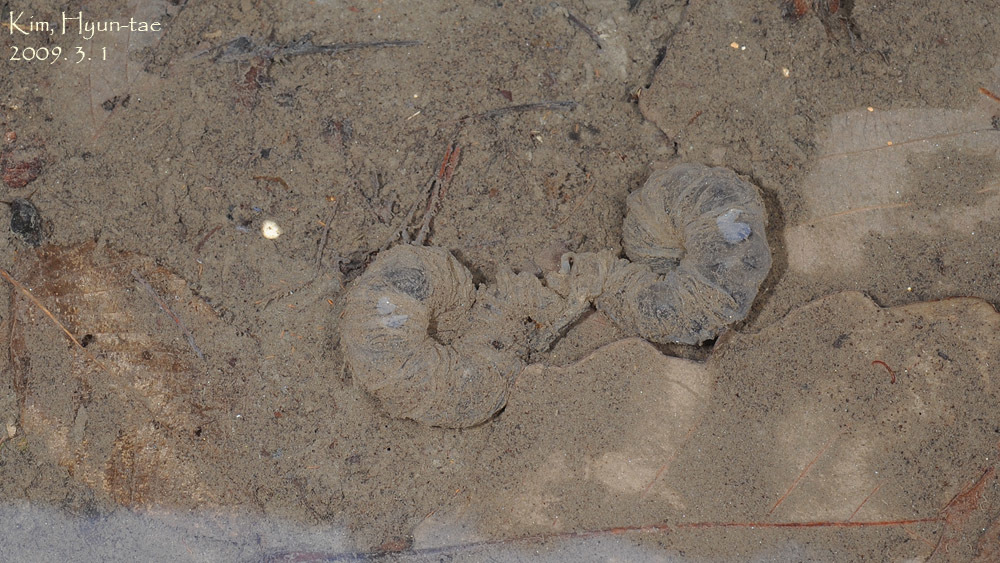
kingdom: Animalia
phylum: Chordata
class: Amphibia
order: Caudata
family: Hynobiidae
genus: Hynobius
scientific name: Hynobius leechii
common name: Gensan salamander
